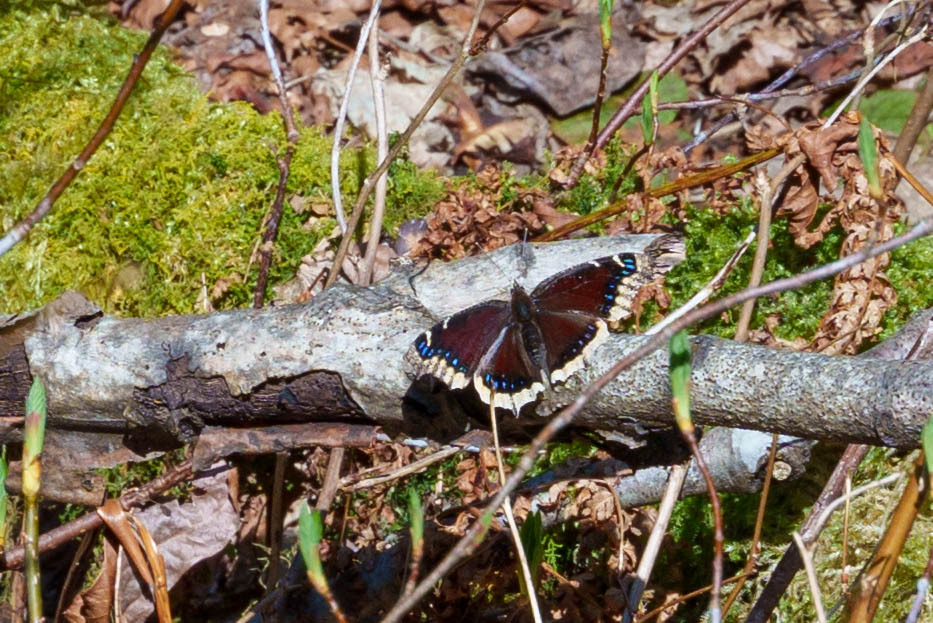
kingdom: Animalia
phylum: Arthropoda
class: Insecta
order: Lepidoptera
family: Nymphalidae
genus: Nymphalis
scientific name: Nymphalis antiopa
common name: Camberwell beauty
